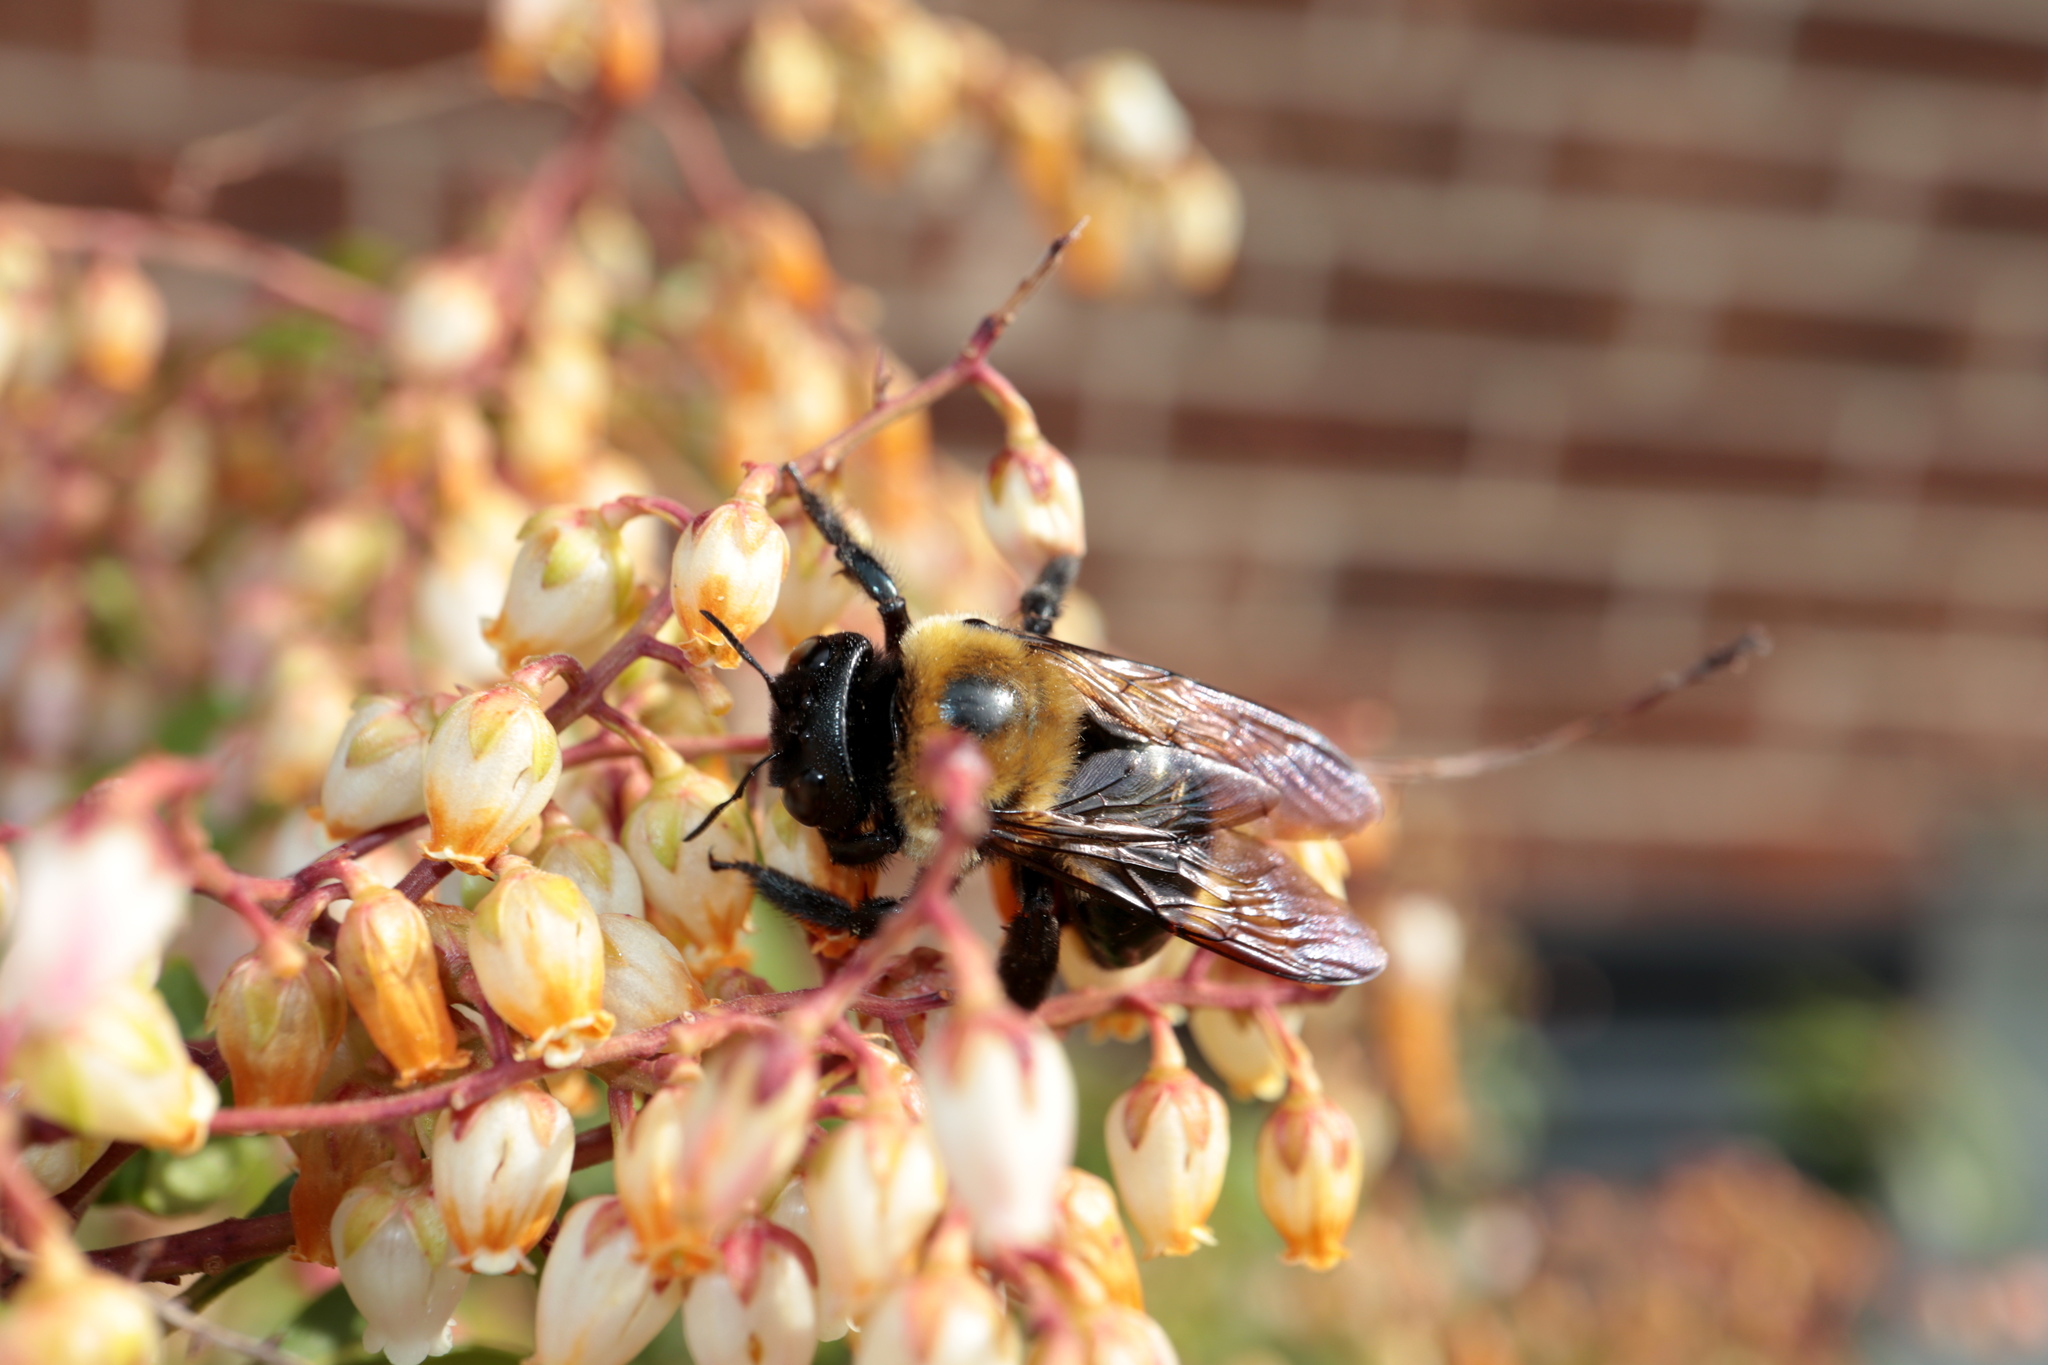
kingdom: Animalia
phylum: Arthropoda
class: Insecta
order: Hymenoptera
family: Apidae
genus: Xylocopa
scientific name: Xylocopa virginica
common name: Carpenter bee
